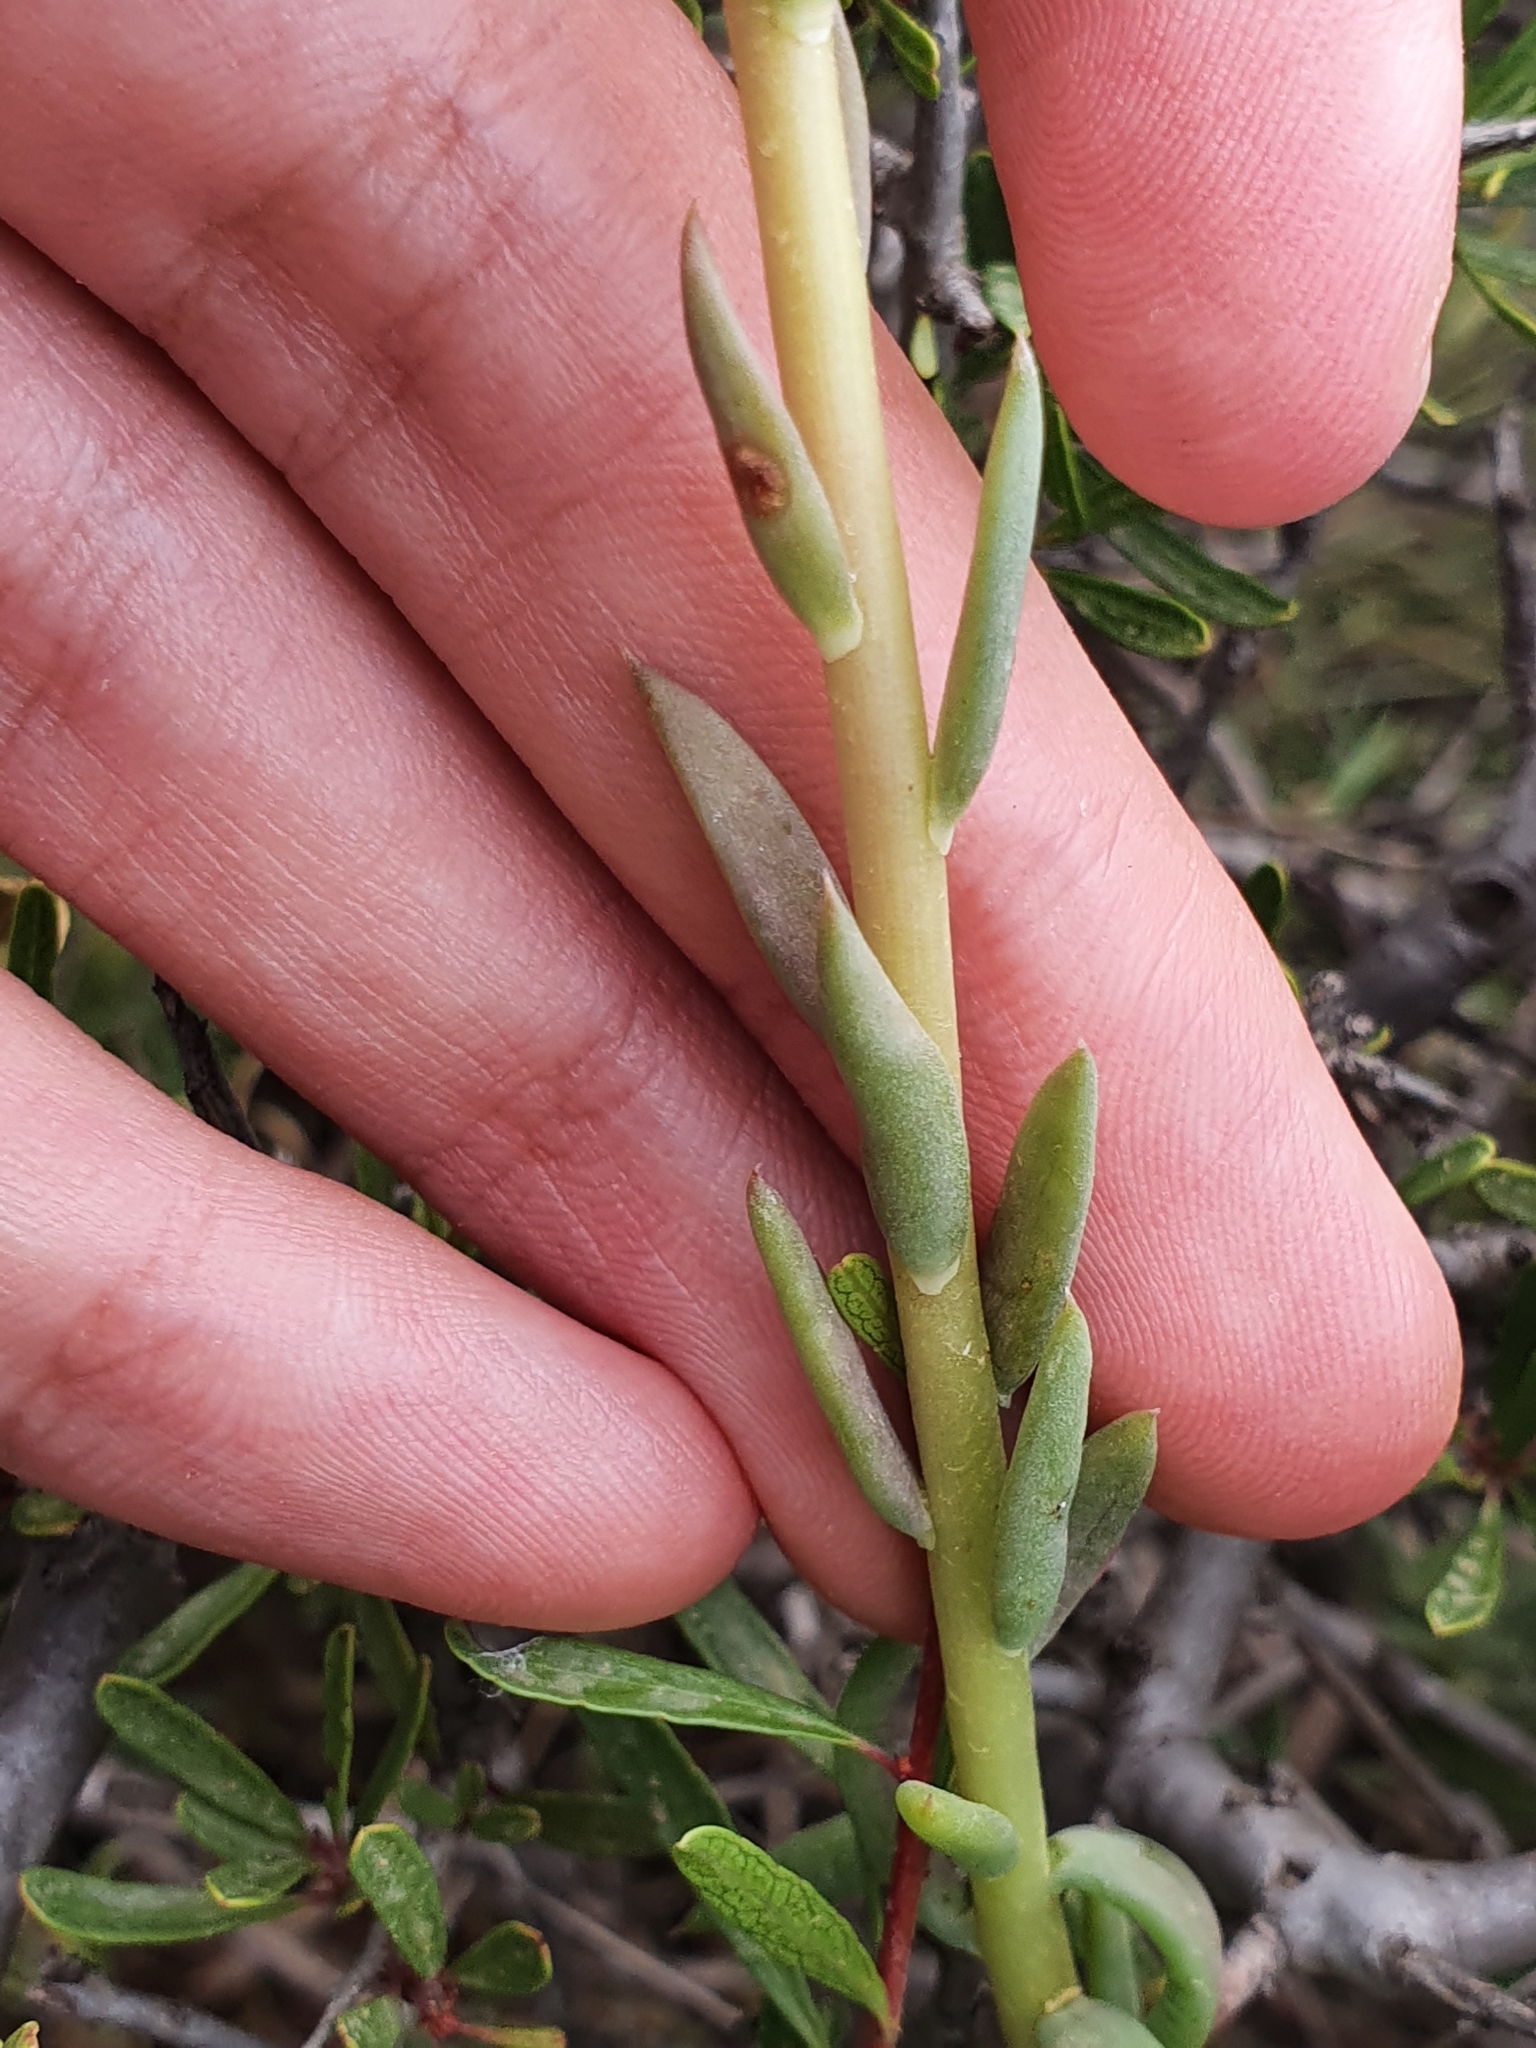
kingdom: Plantae
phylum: Tracheophyta
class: Magnoliopsida
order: Saxifragales
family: Crassulaceae
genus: Petrosedum
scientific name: Petrosedum sediforme
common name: Pale stonecrop
